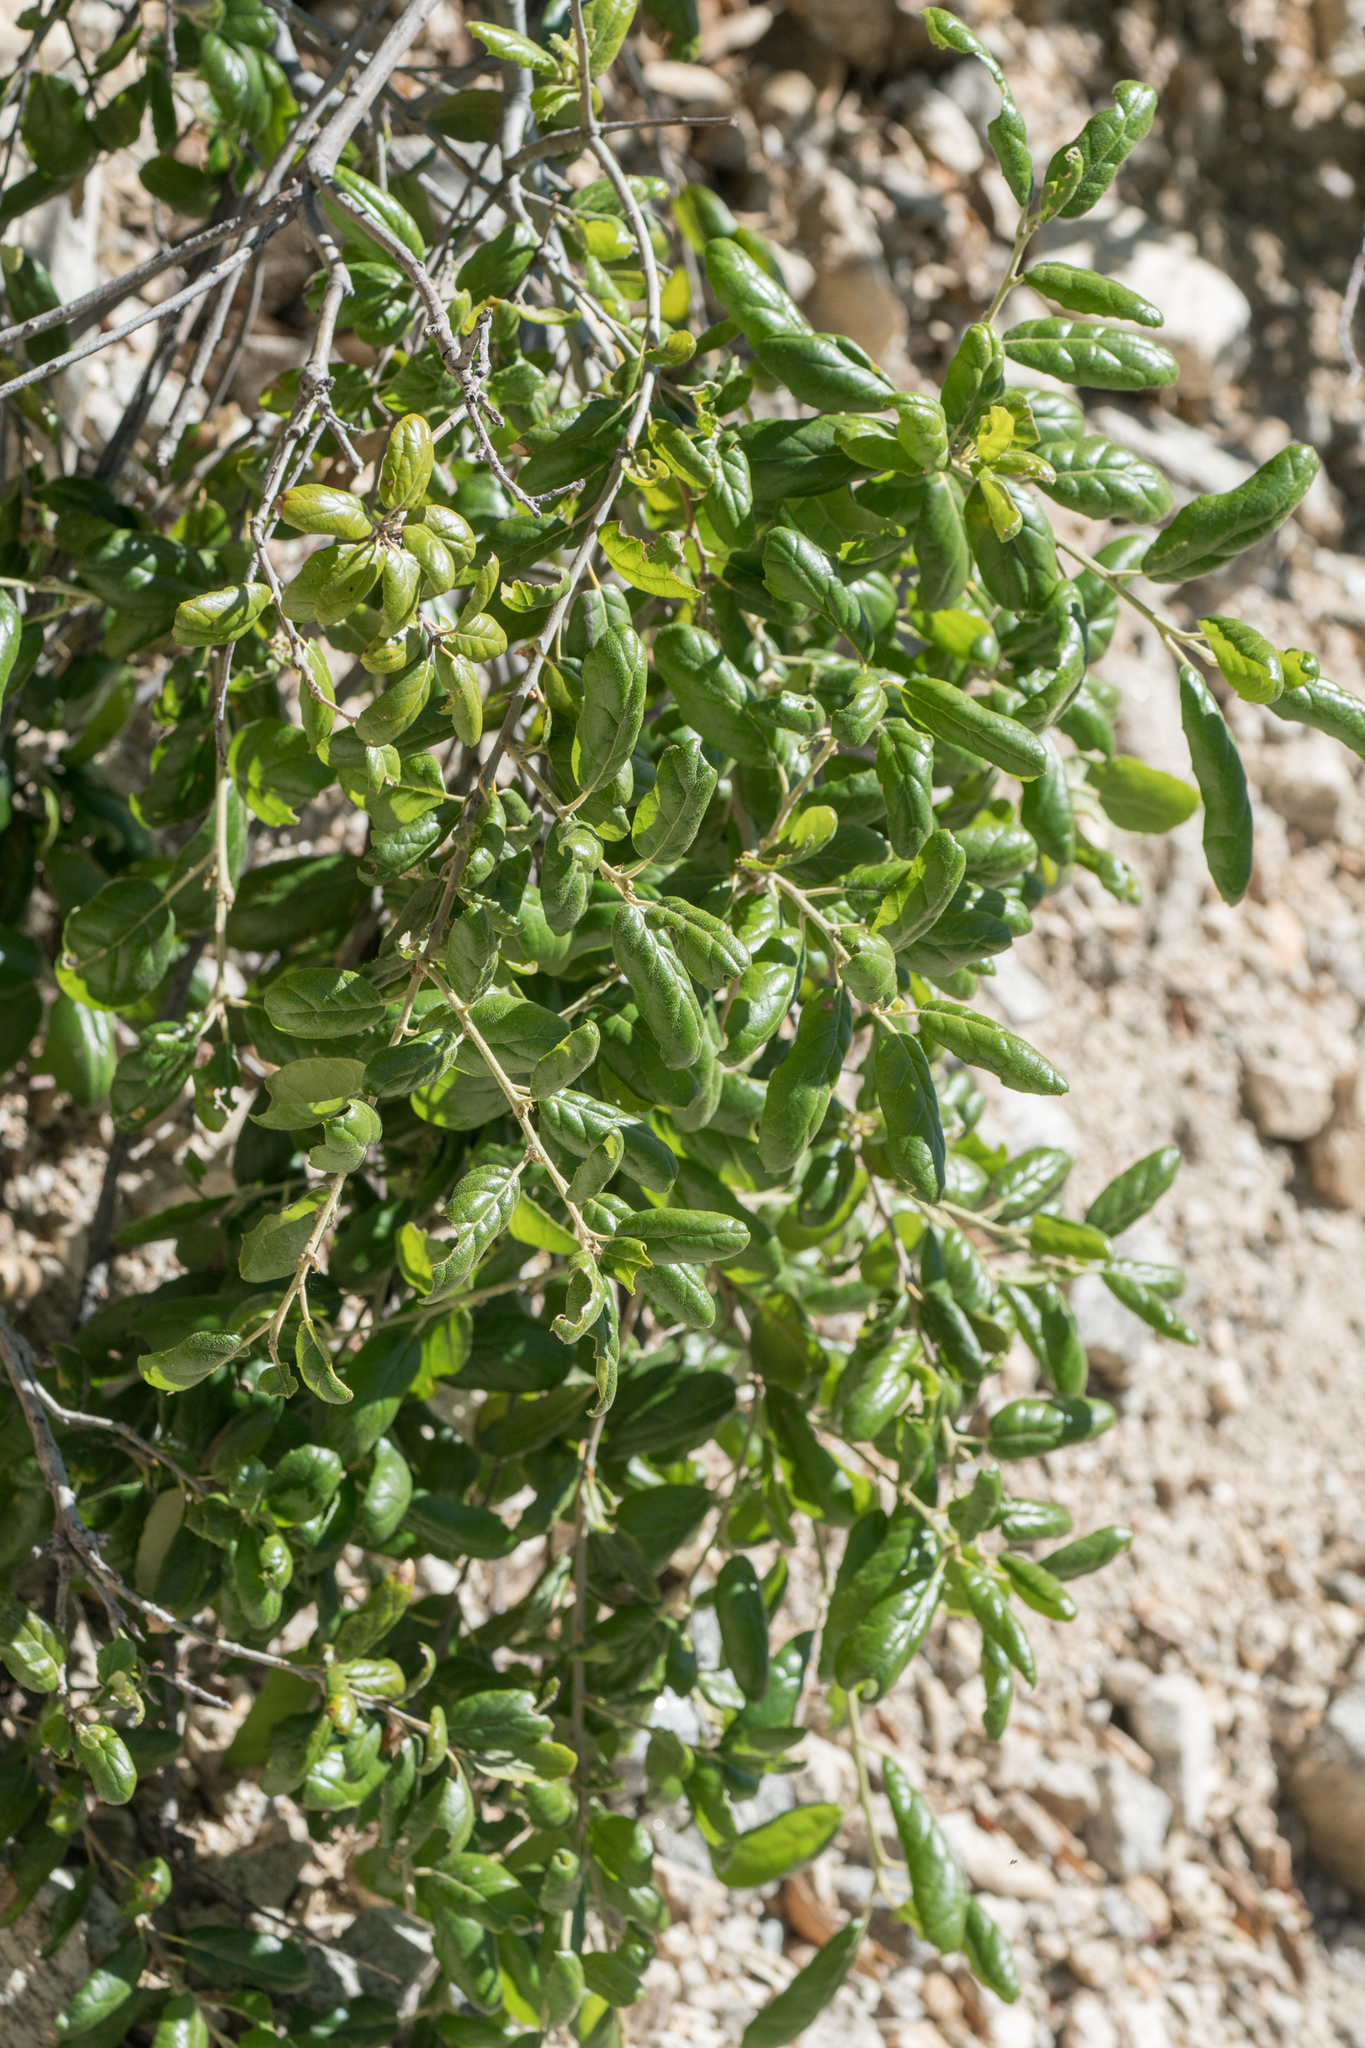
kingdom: Plantae
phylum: Tracheophyta
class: Magnoliopsida
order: Fagales
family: Fagaceae
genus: Quercus
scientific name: Quercus agrifolia
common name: California live oak
